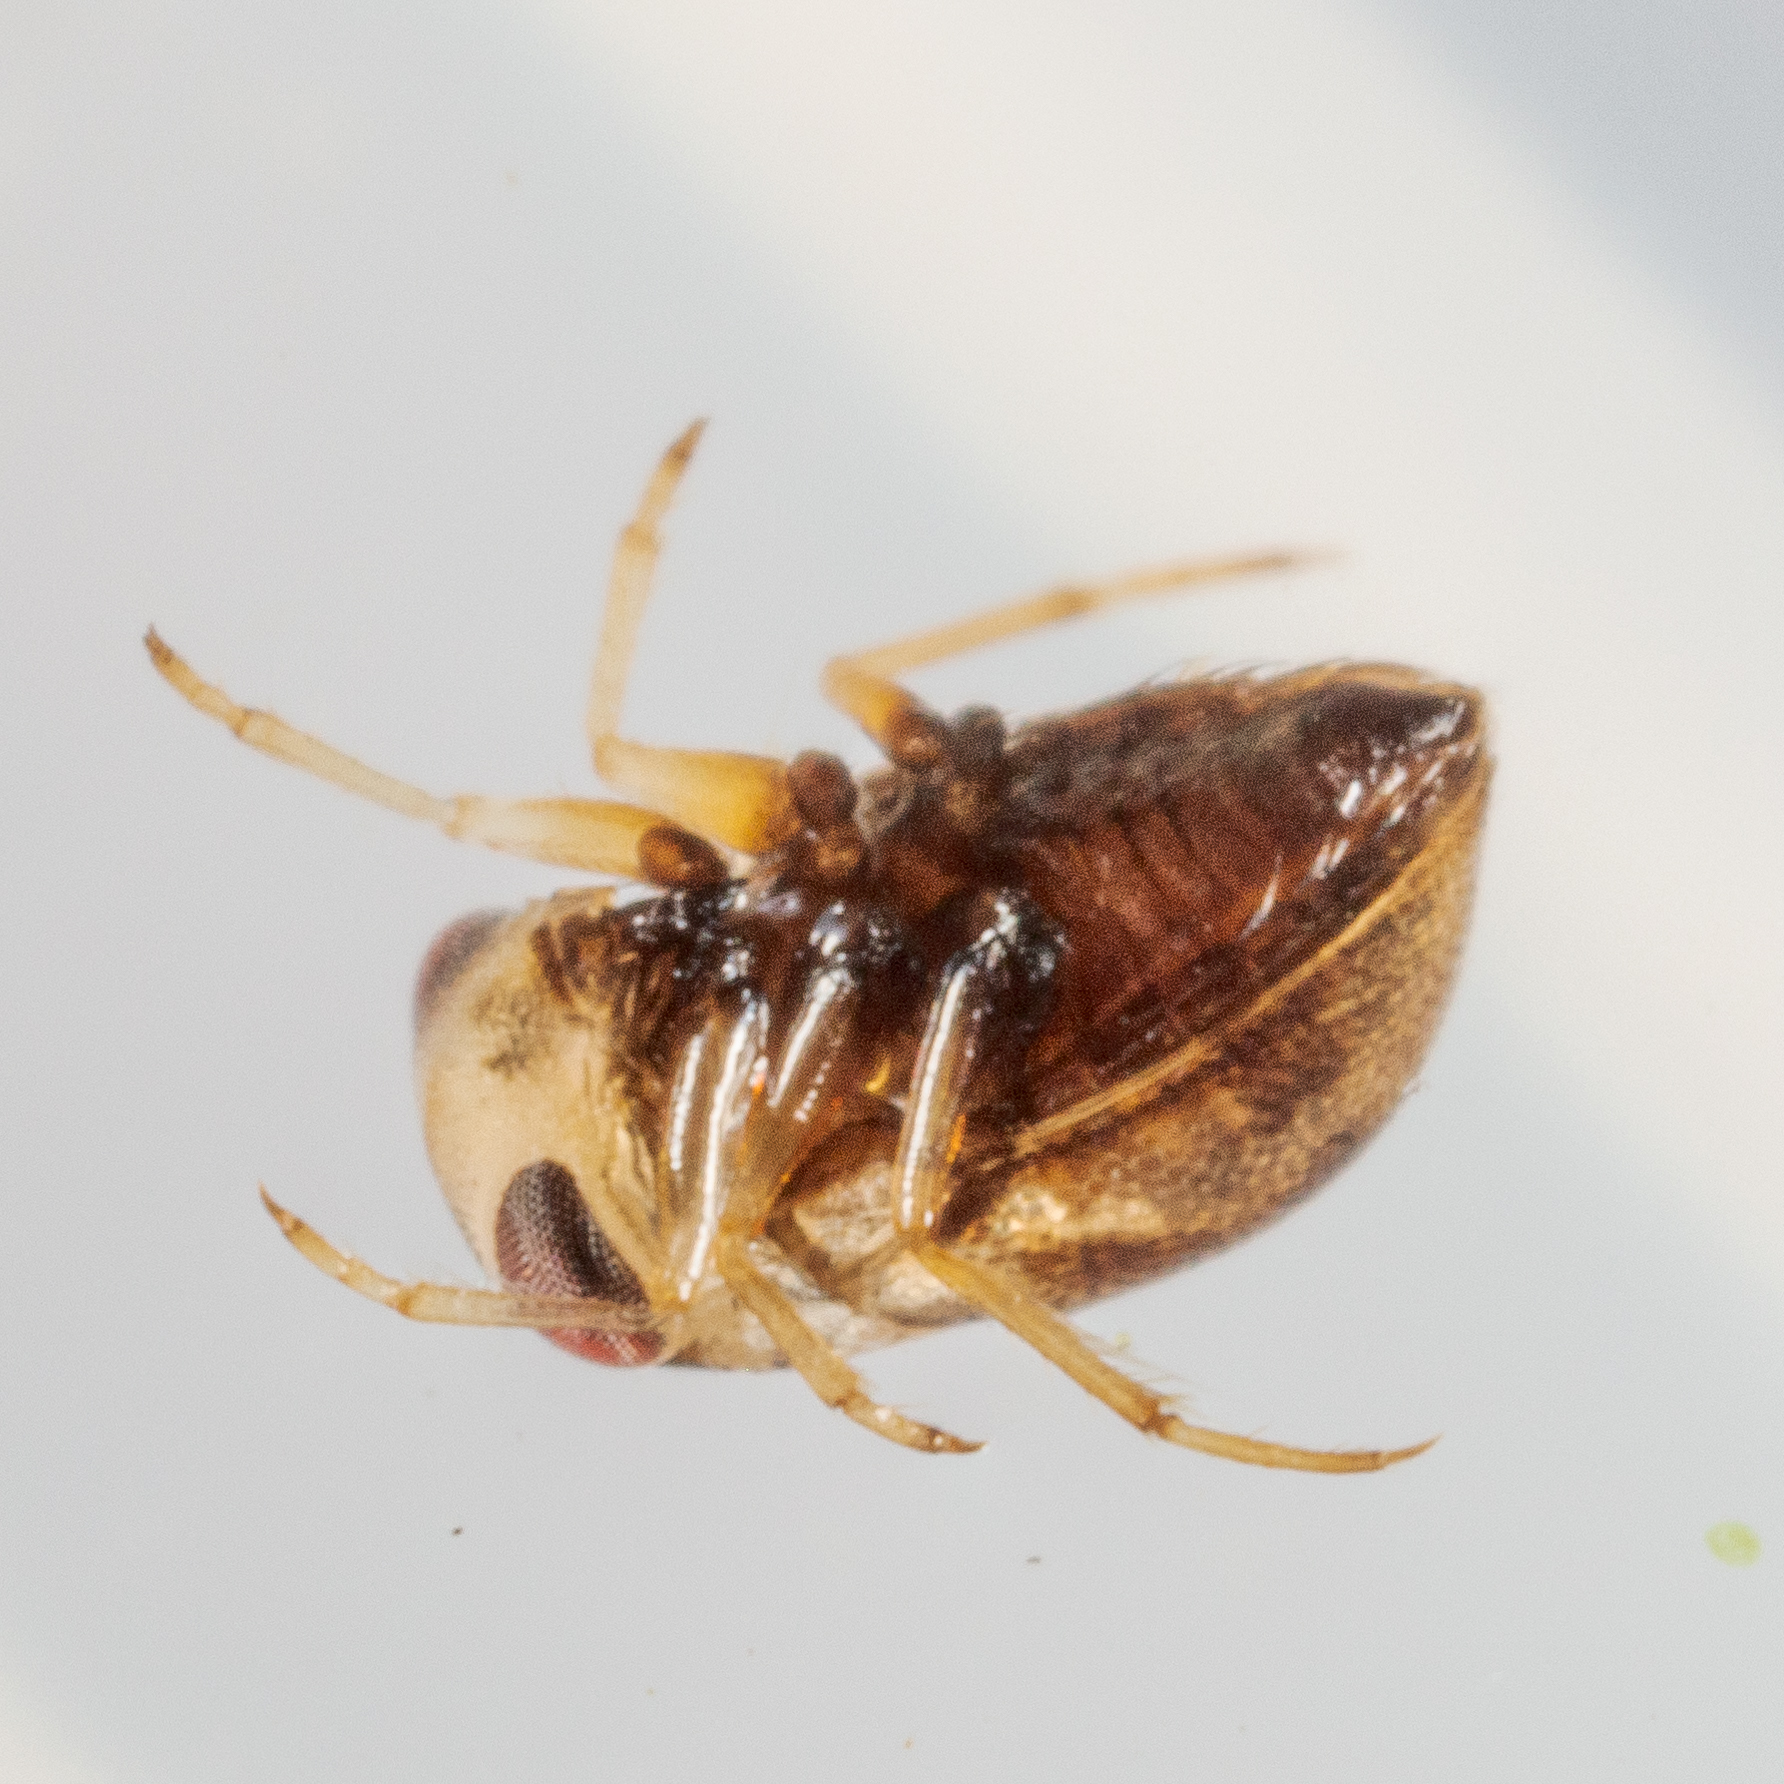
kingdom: Animalia
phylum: Arthropoda
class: Insecta
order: Hemiptera
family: Pleidae
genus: Neoplea
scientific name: Neoplea
